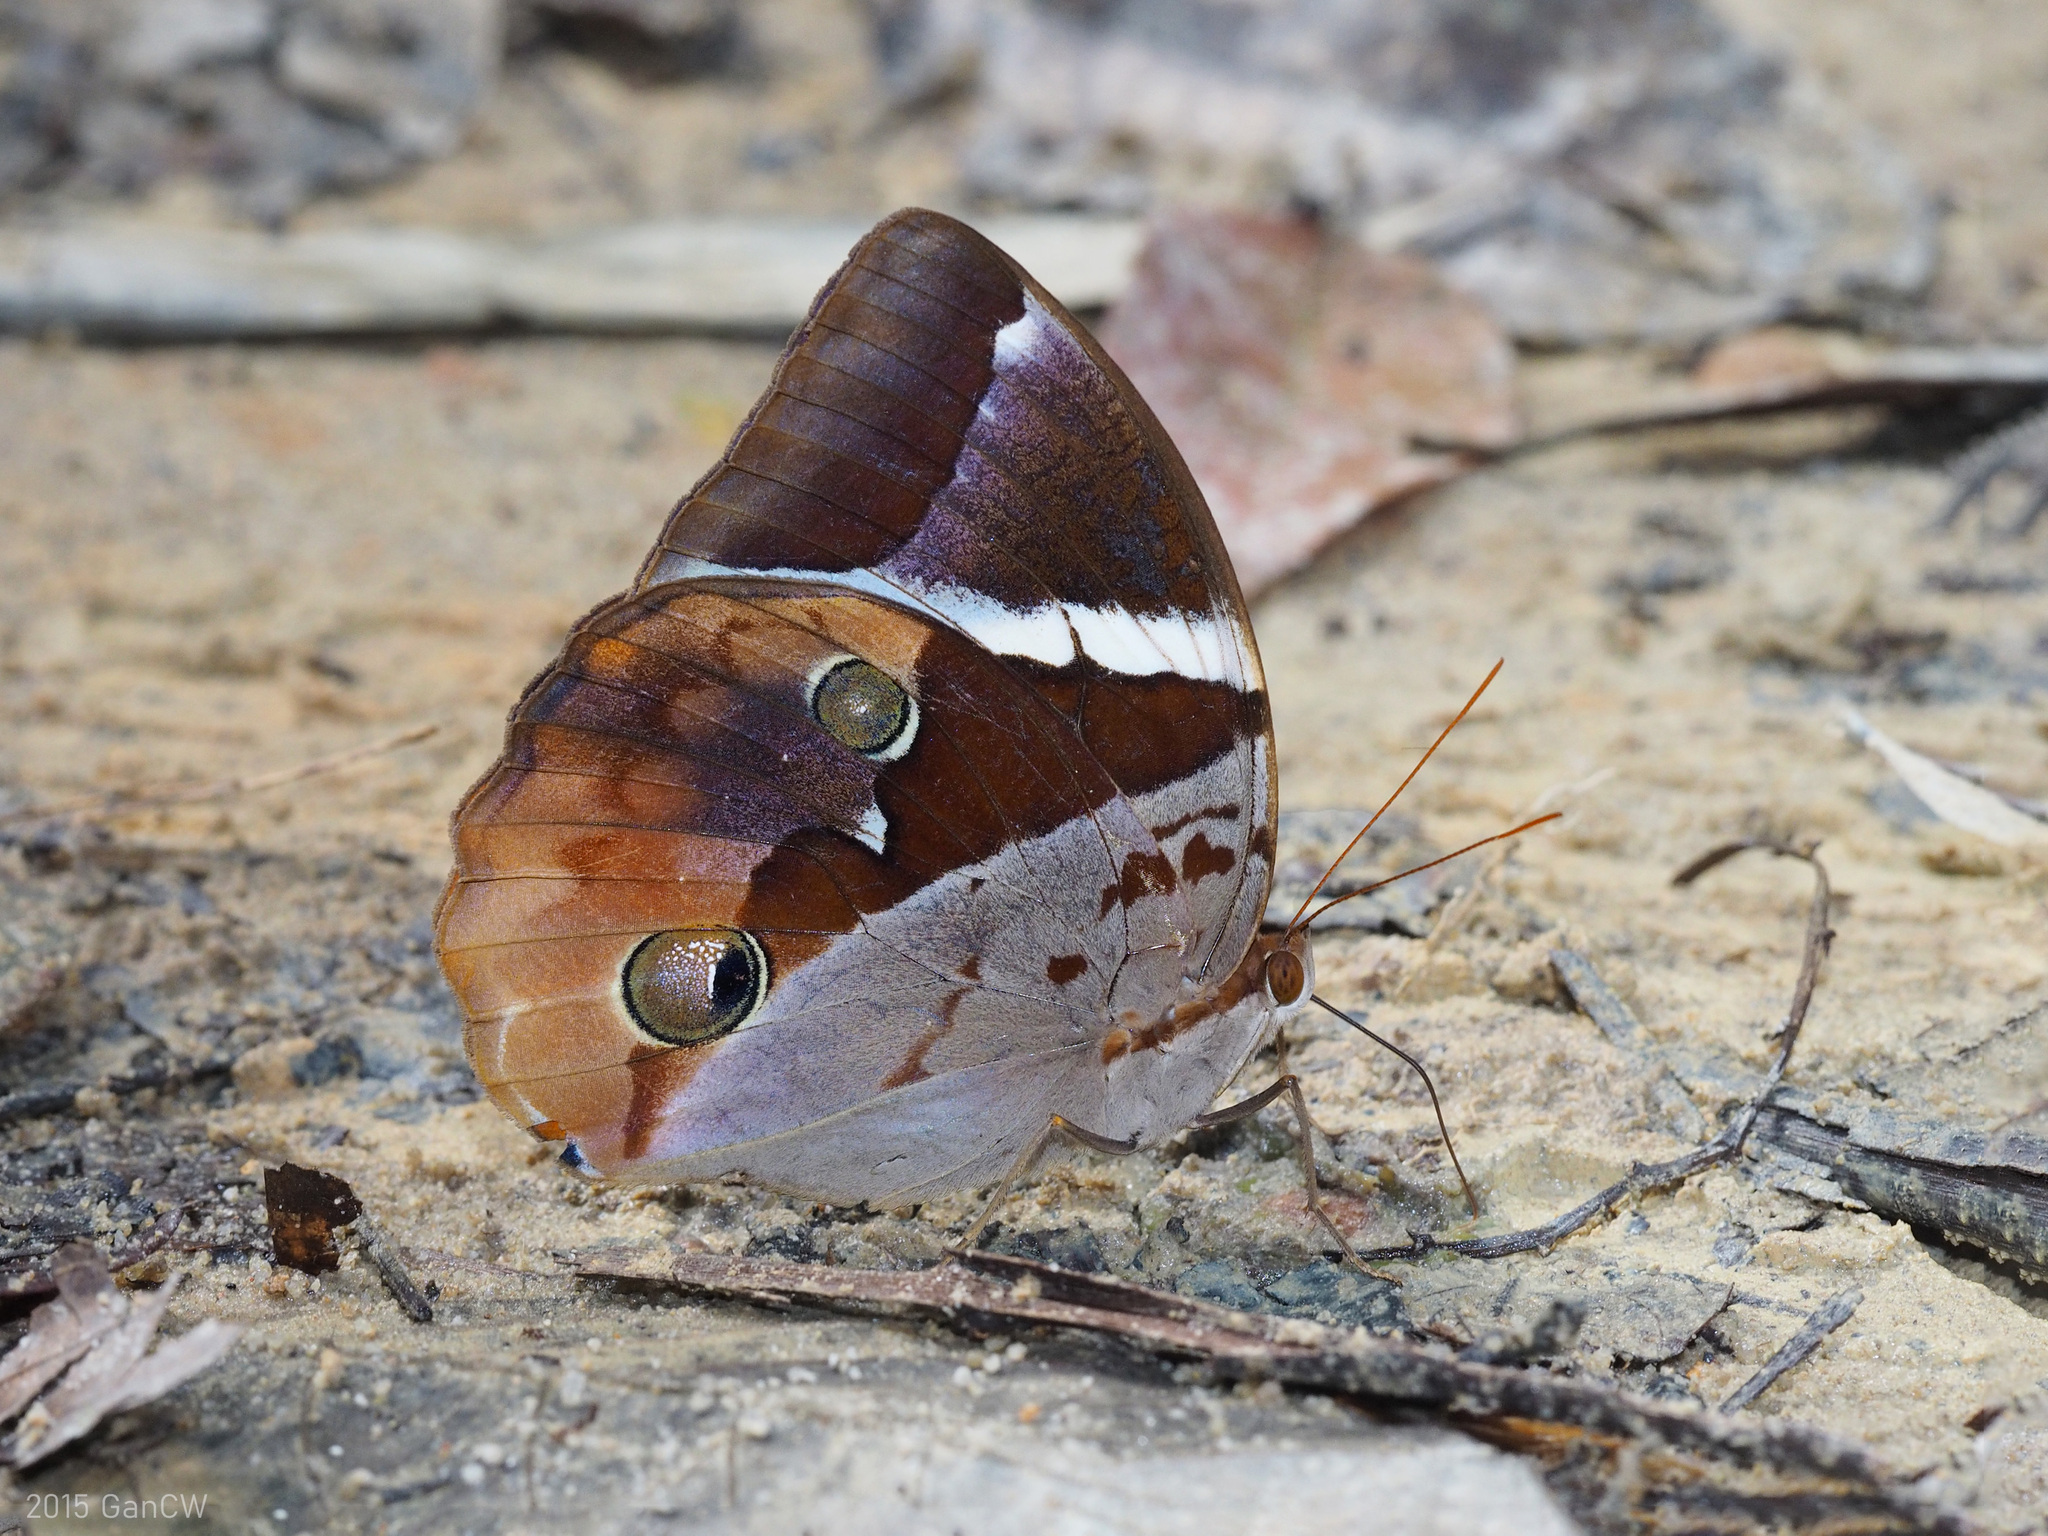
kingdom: Animalia
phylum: Arthropoda
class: Insecta
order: Lepidoptera
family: Nymphalidae
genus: Thauria
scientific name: Thauria aliris
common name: Tufted jungle king
